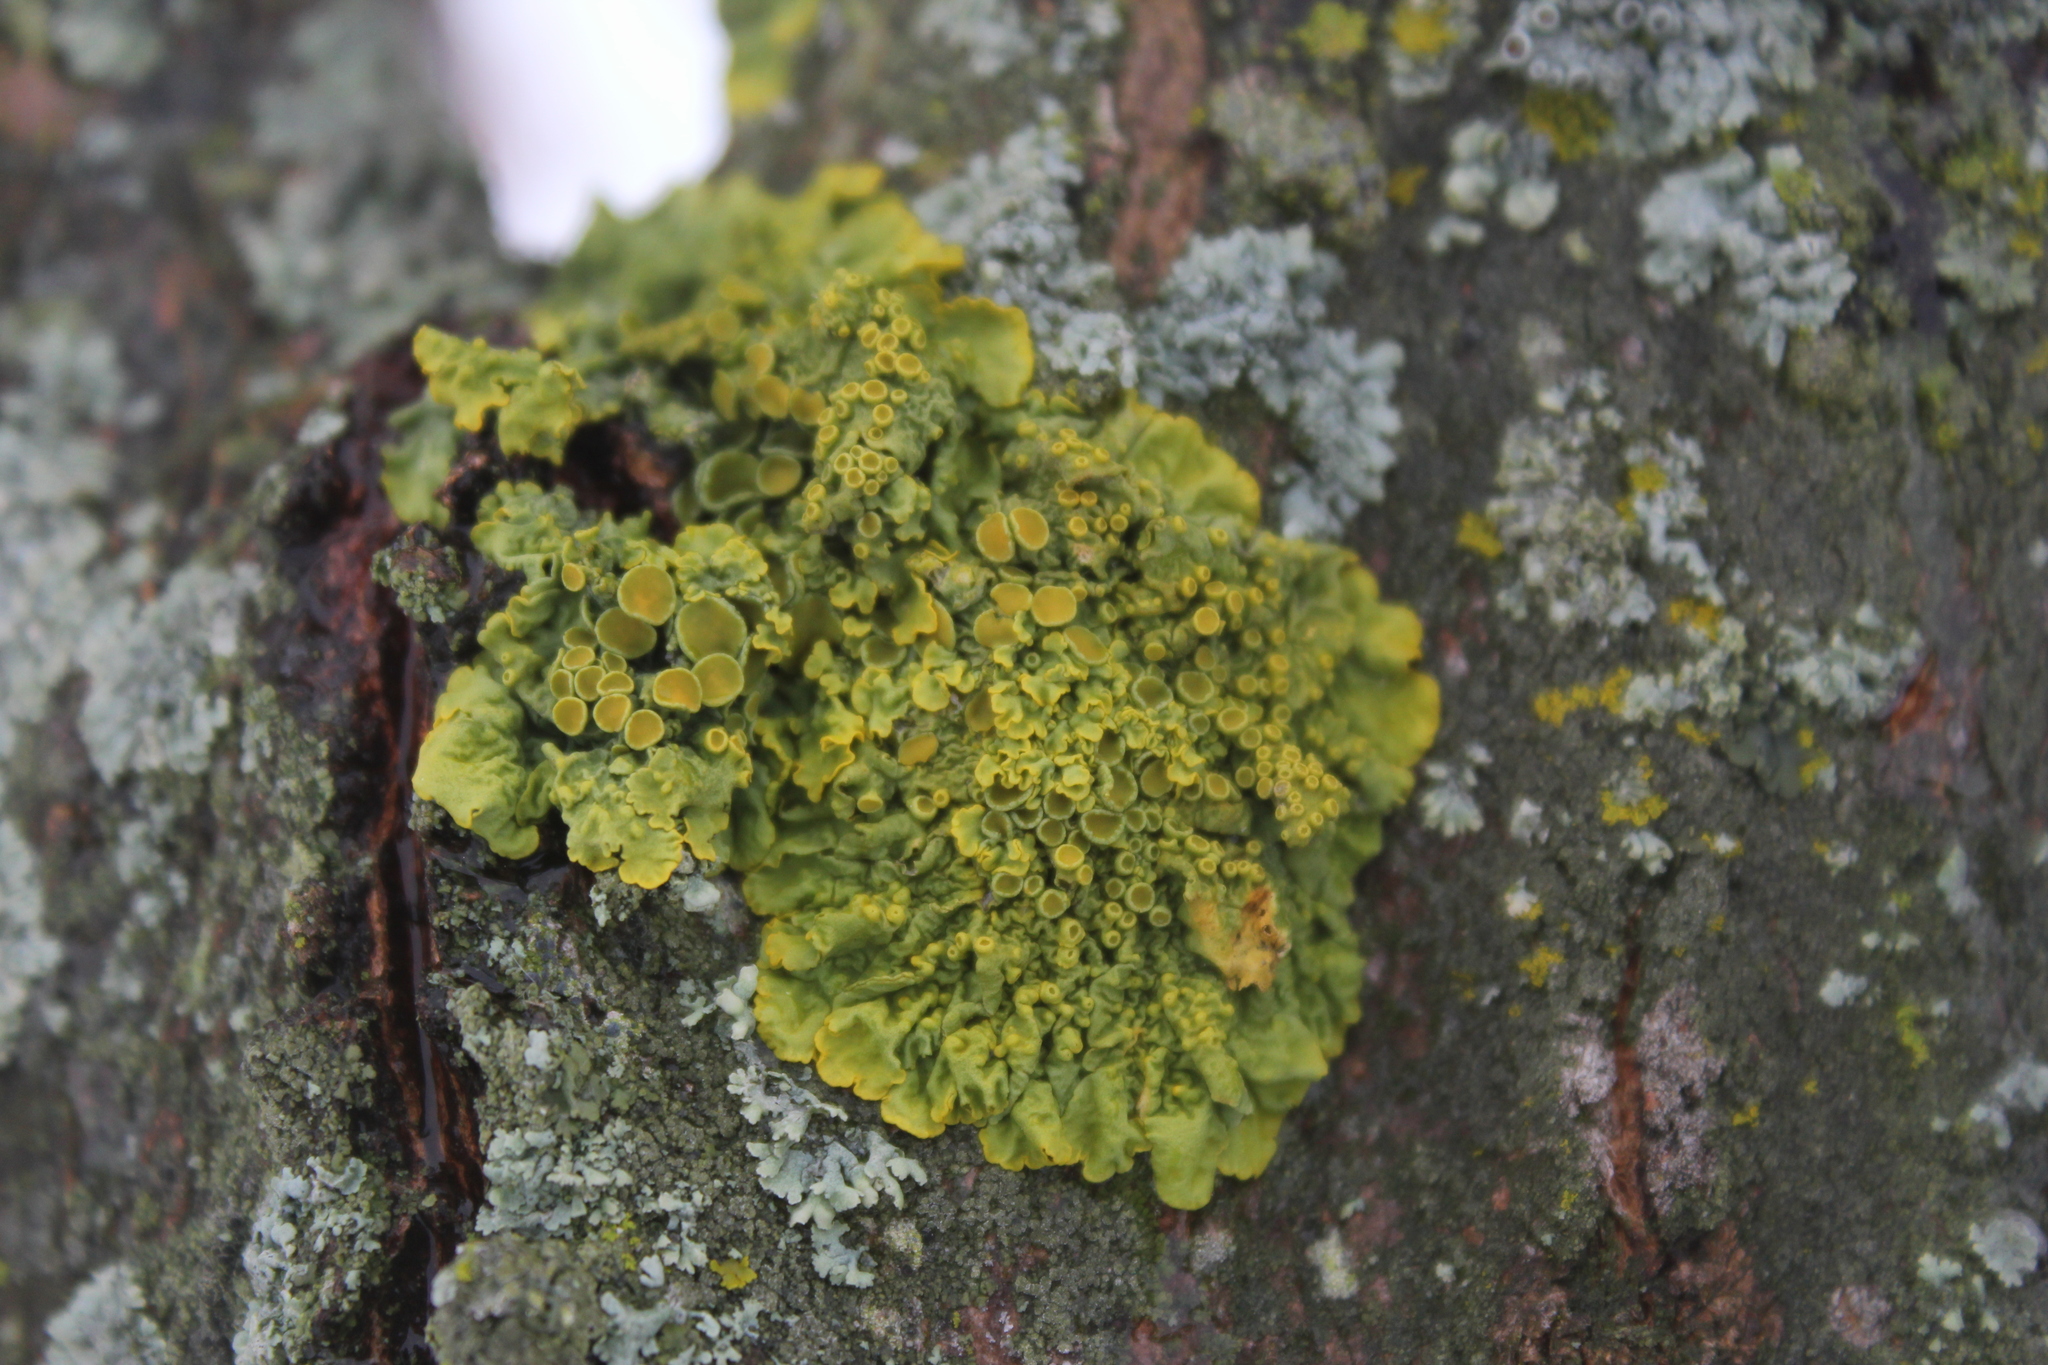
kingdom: Fungi
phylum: Ascomycota
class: Lecanoromycetes
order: Teloschistales
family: Teloschistaceae
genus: Xanthoria
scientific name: Xanthoria parietina
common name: Common orange lichen
